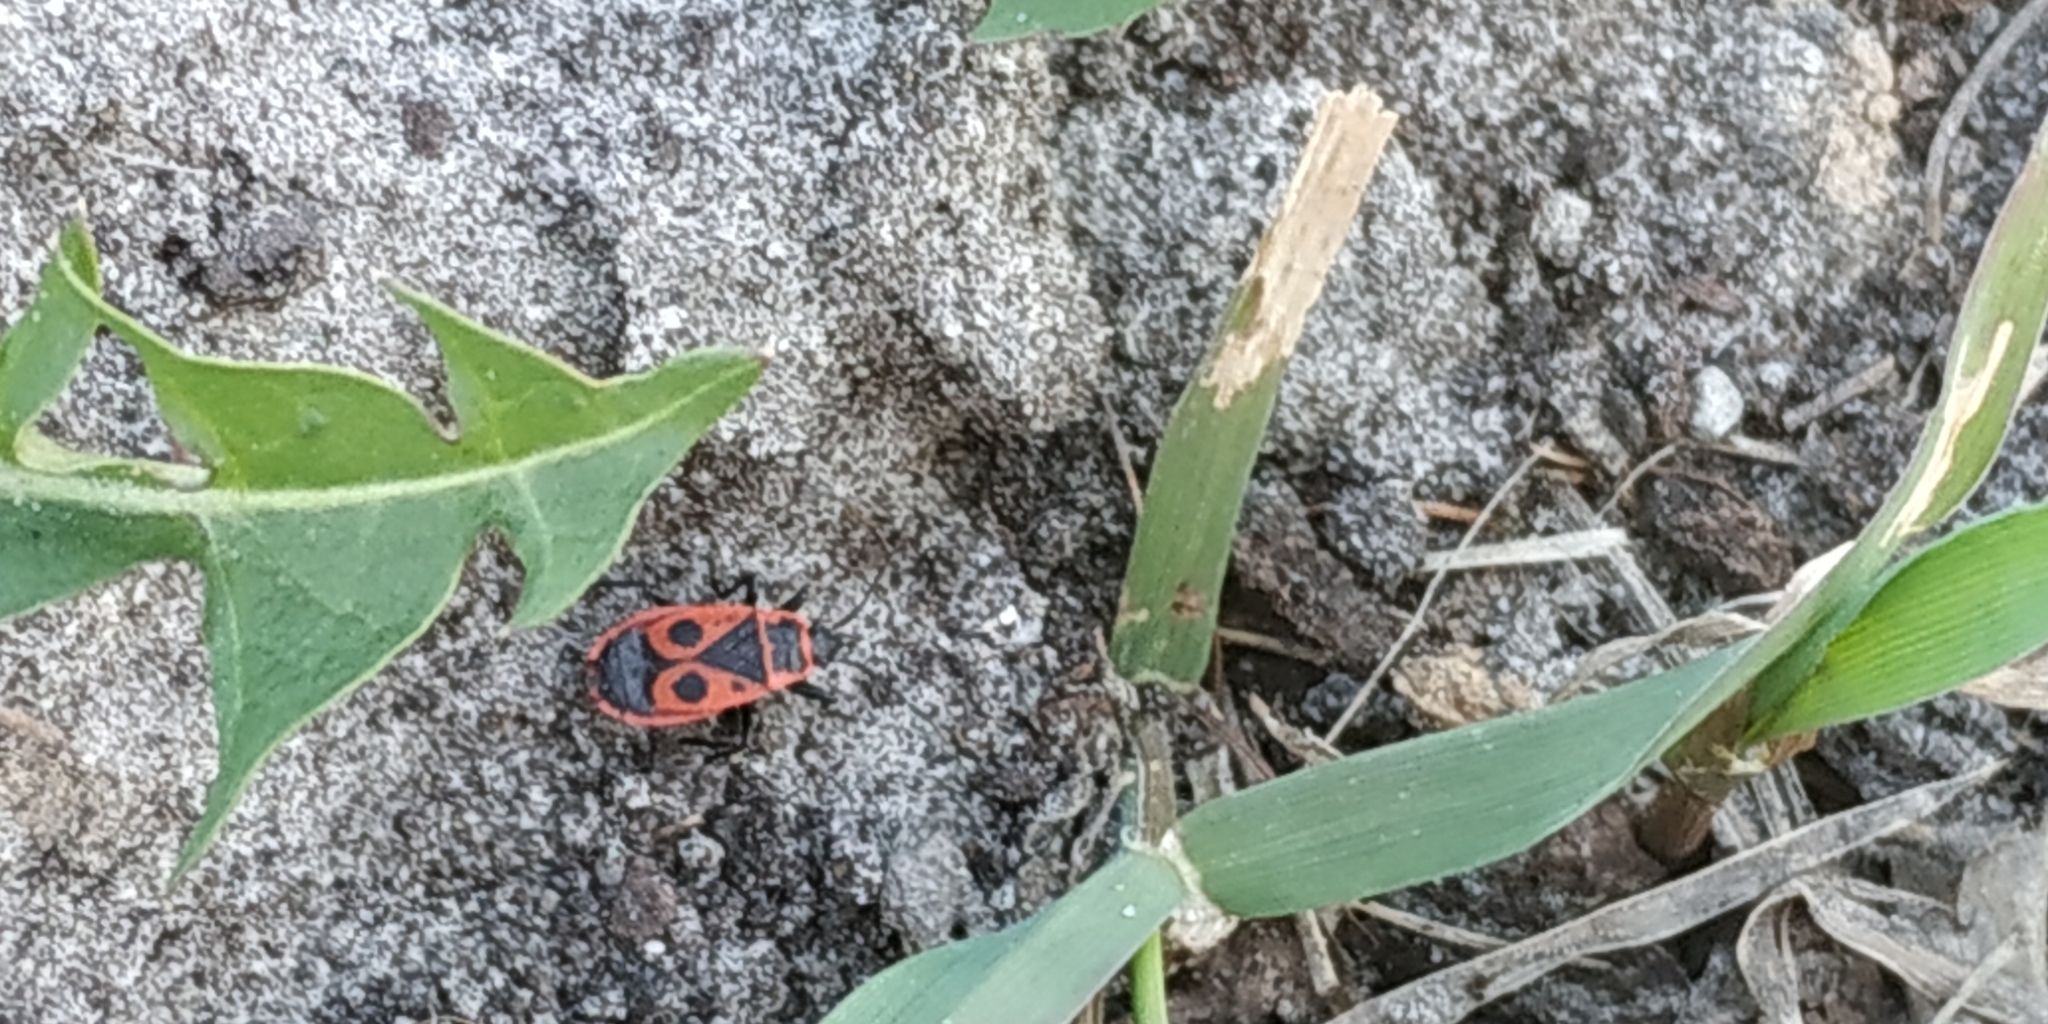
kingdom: Animalia
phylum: Arthropoda
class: Insecta
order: Hemiptera
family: Pyrrhocoridae
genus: Pyrrhocoris
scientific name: Pyrrhocoris apterus
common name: Firebug
